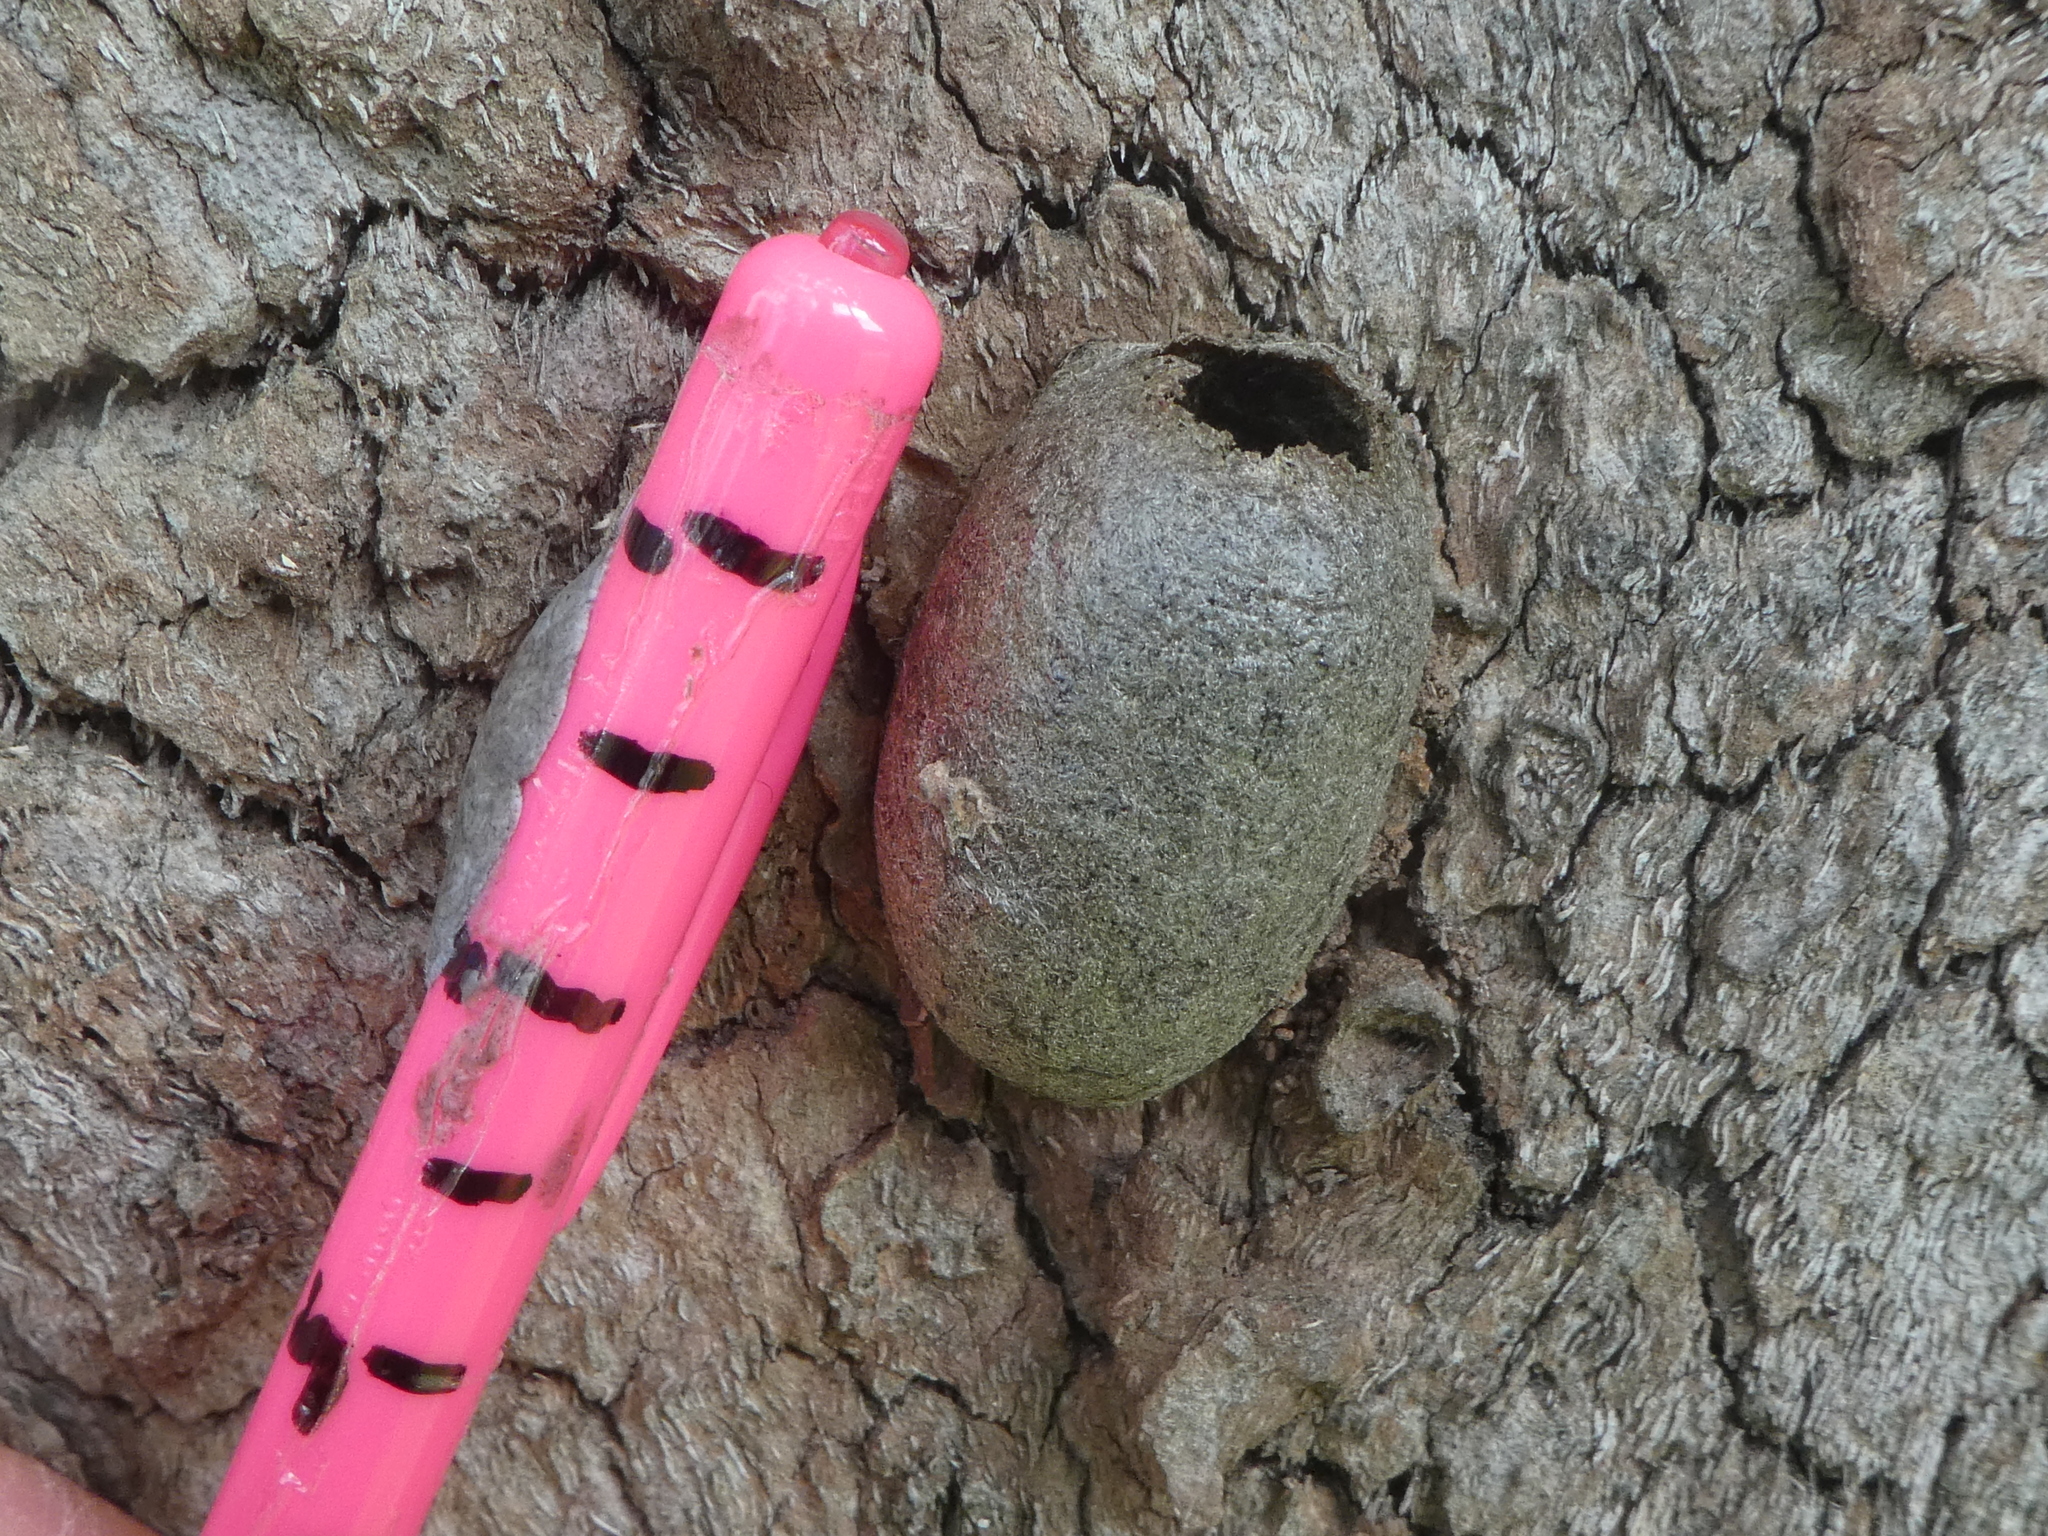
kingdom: Animalia
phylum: Arthropoda
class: Insecta
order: Lepidoptera
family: Saturniidae
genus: Opodiphthera
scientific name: Opodiphthera
